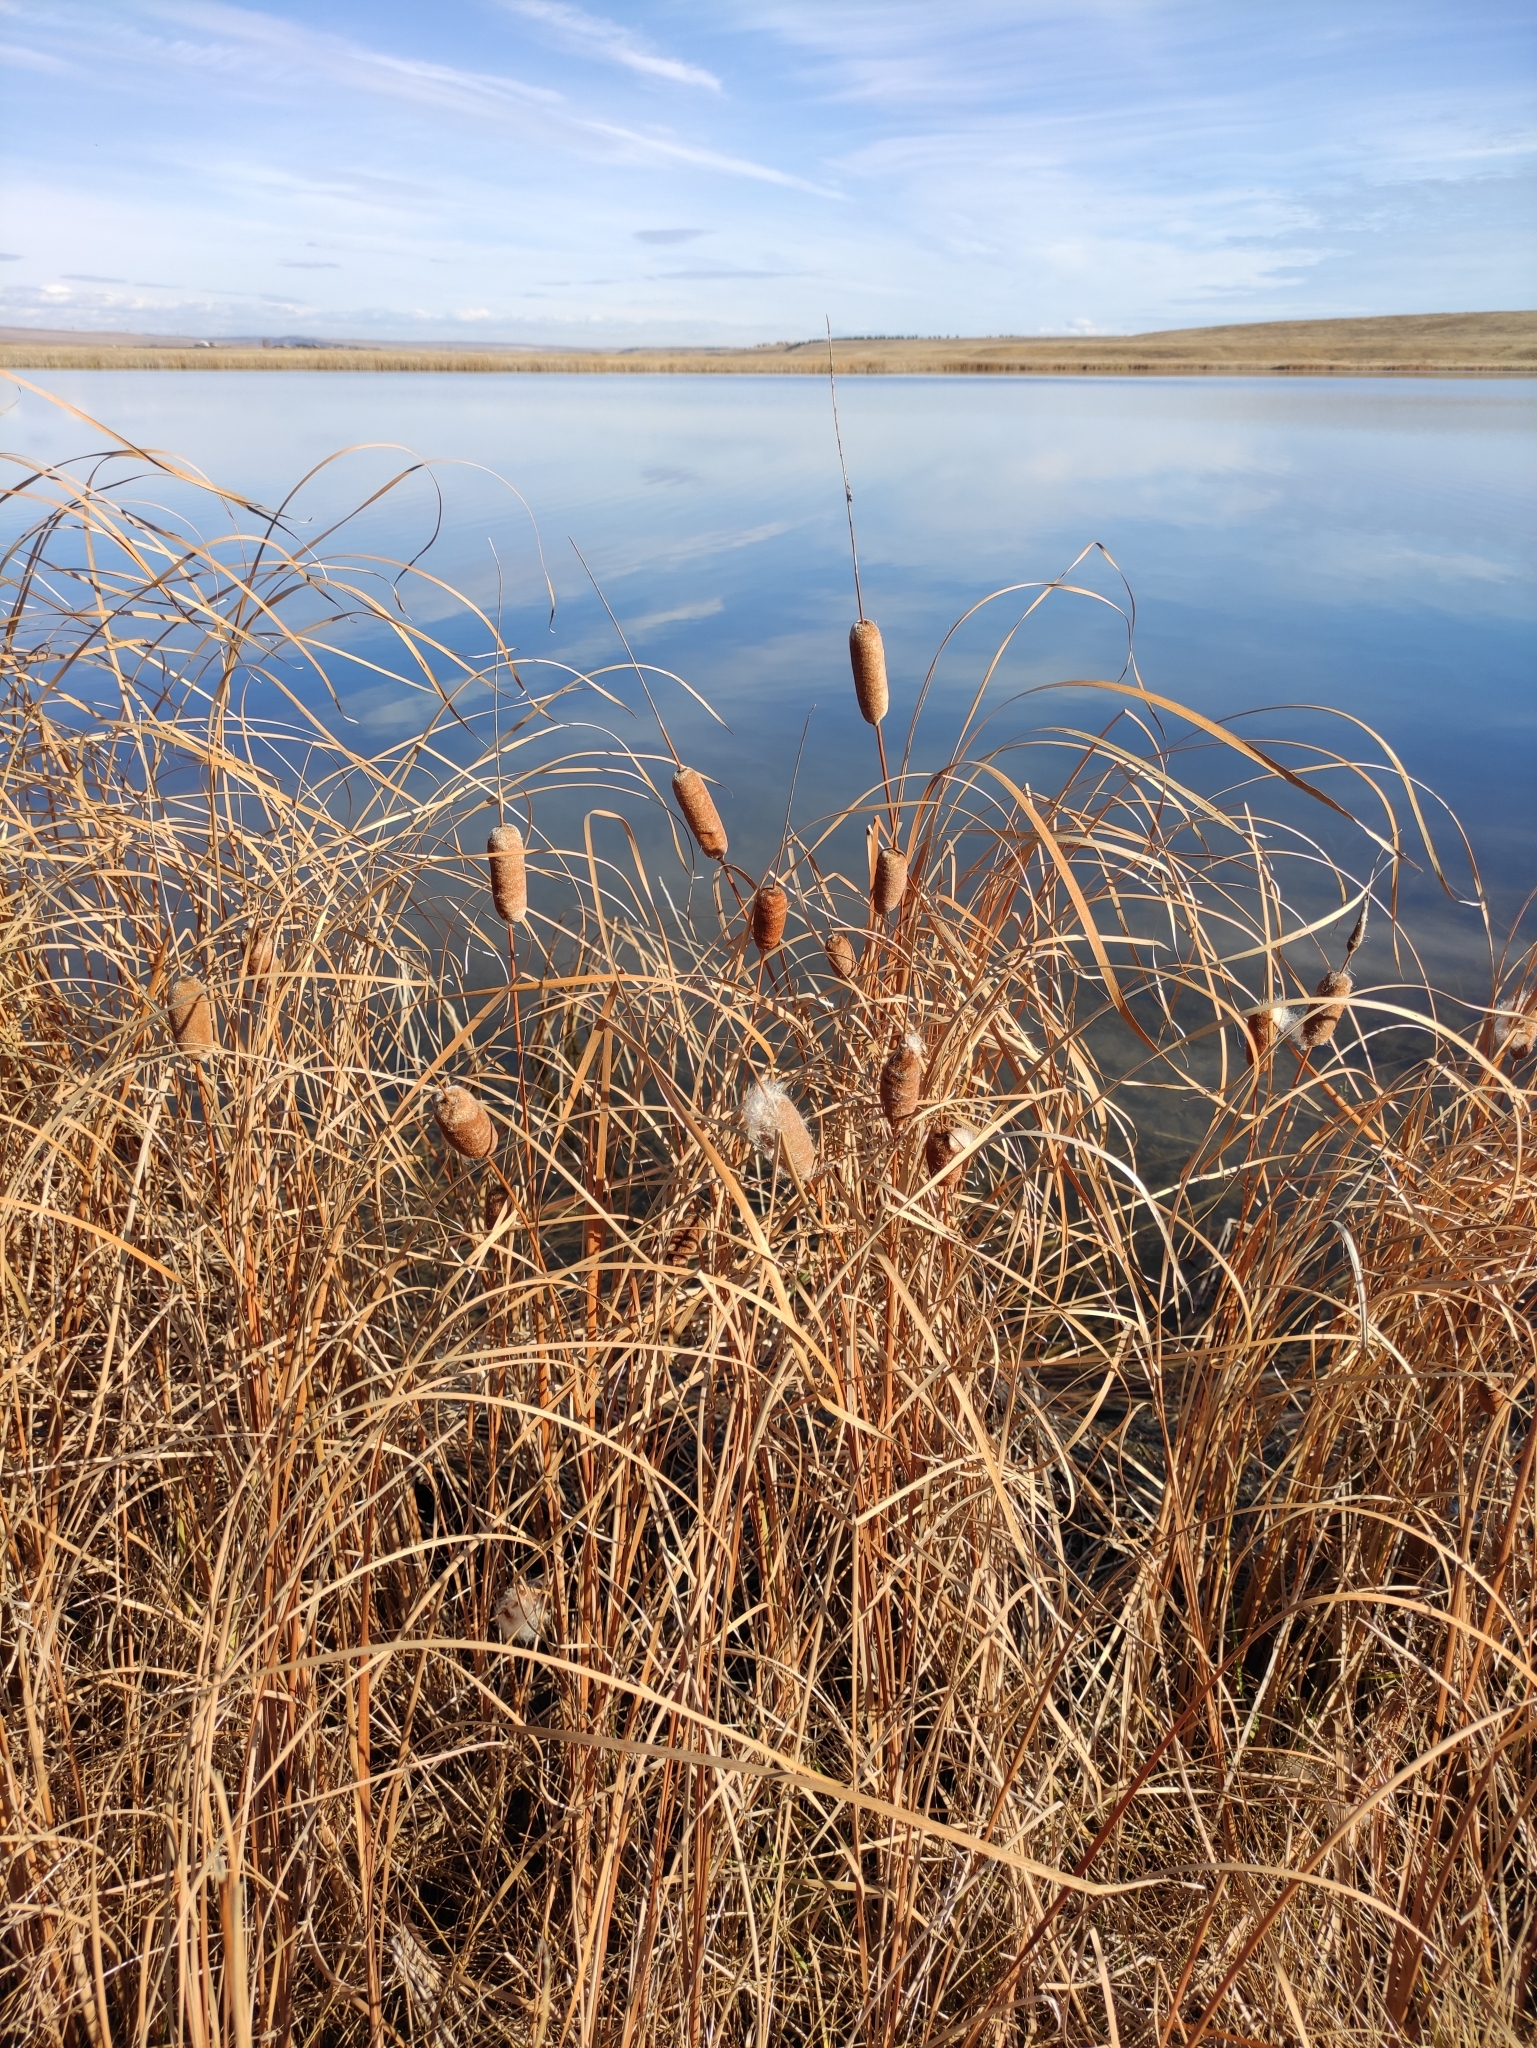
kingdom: Plantae
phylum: Tracheophyta
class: Liliopsida
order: Poales
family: Typhaceae
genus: Typha
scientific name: Typha laxmannii
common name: Laxman’s bulrush
